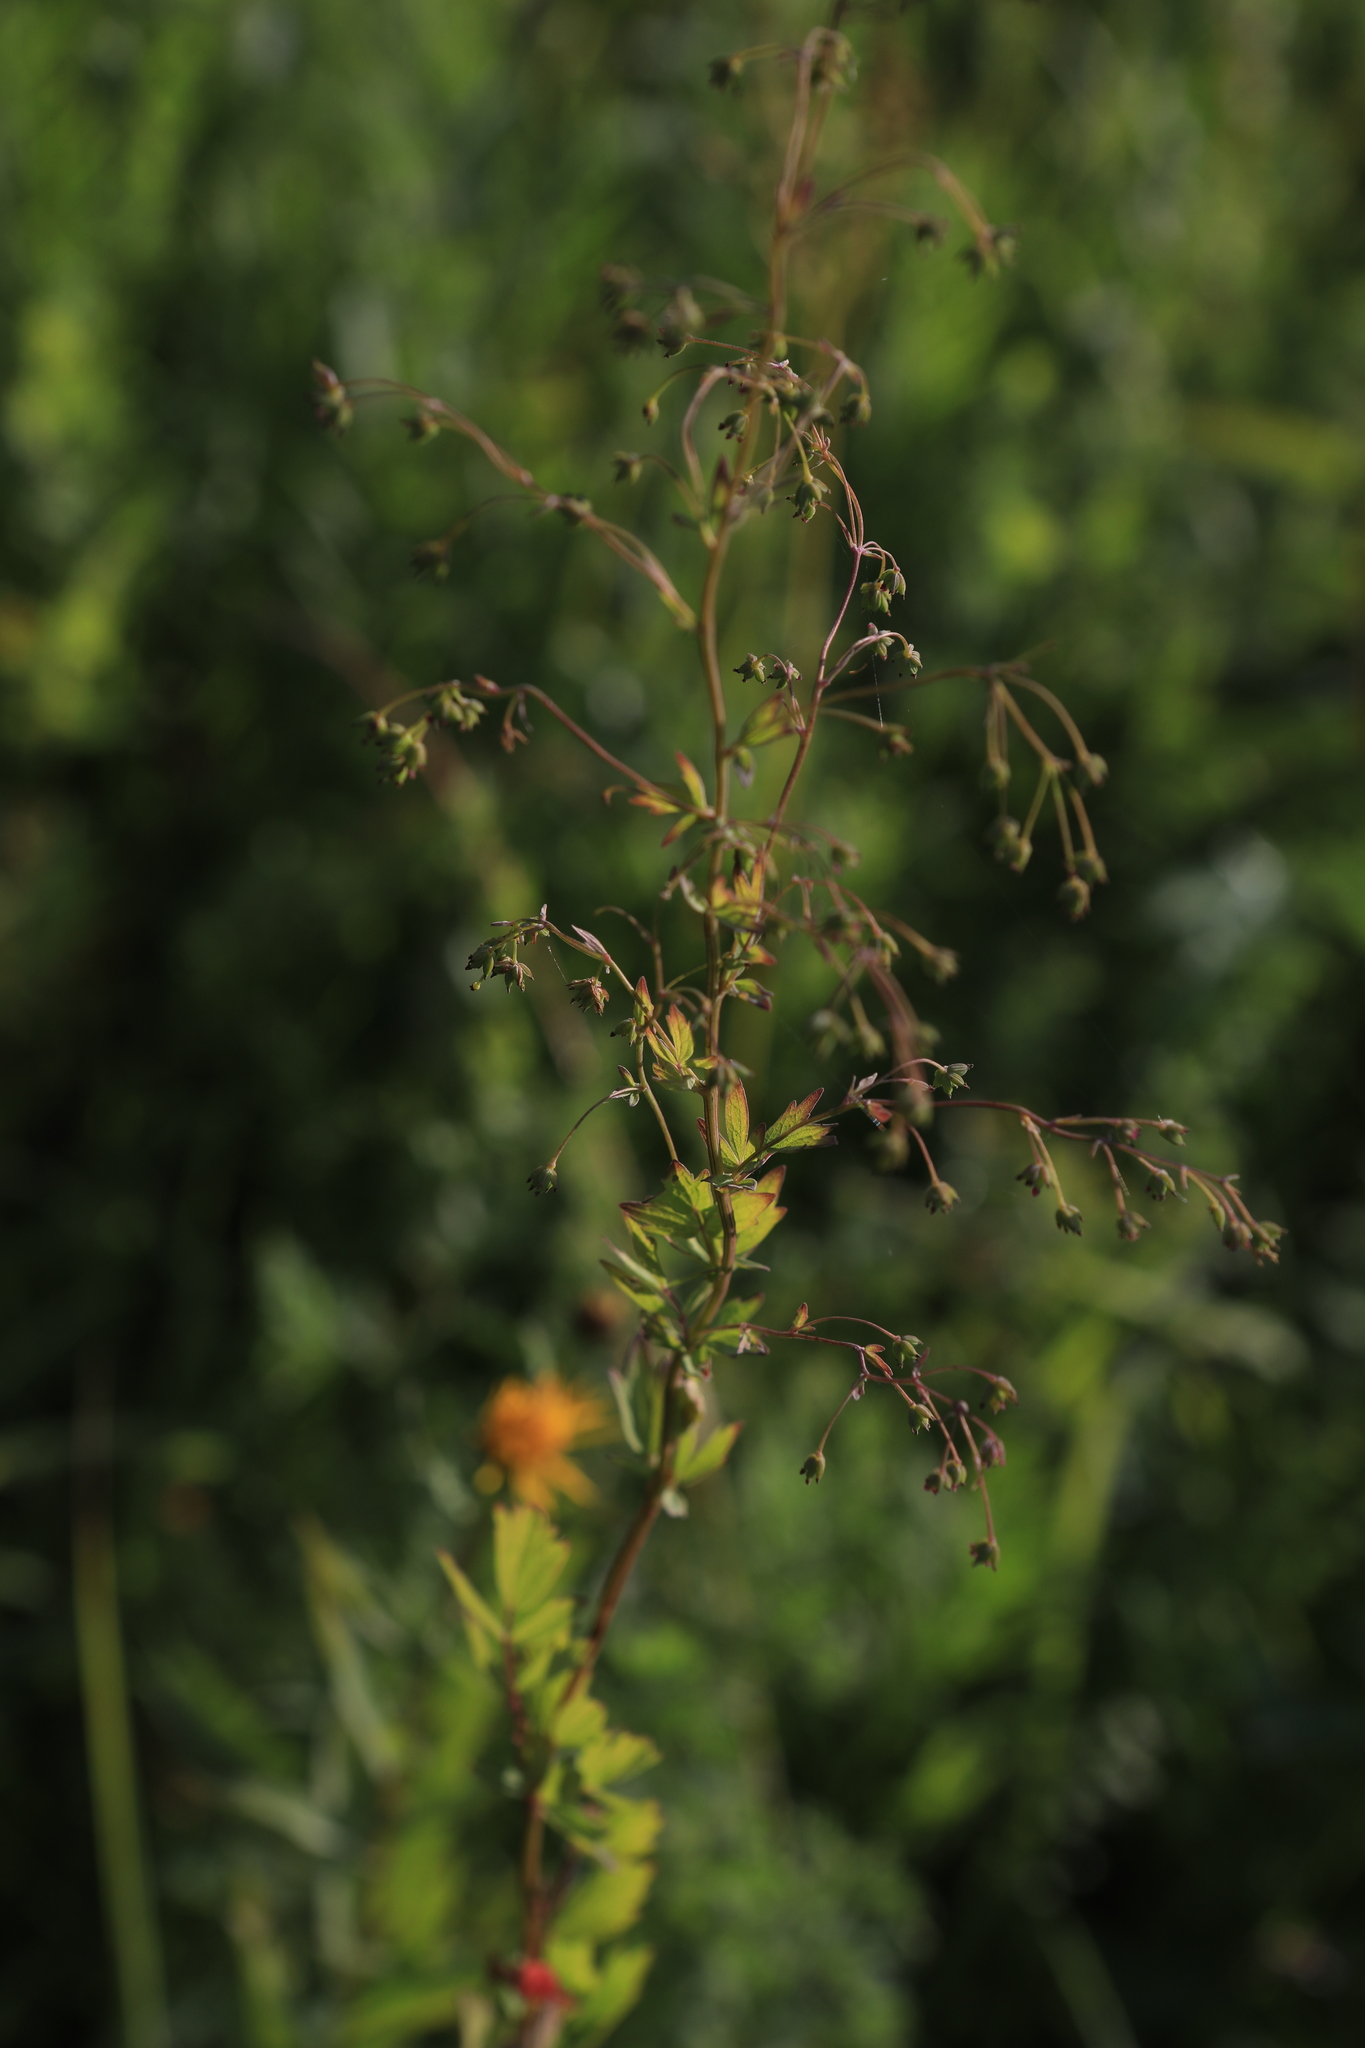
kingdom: Plantae
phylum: Tracheophyta
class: Magnoliopsida
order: Ranunculales
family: Ranunculaceae
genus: Thalictrum
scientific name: Thalictrum simplex
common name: Small meadow-rue
